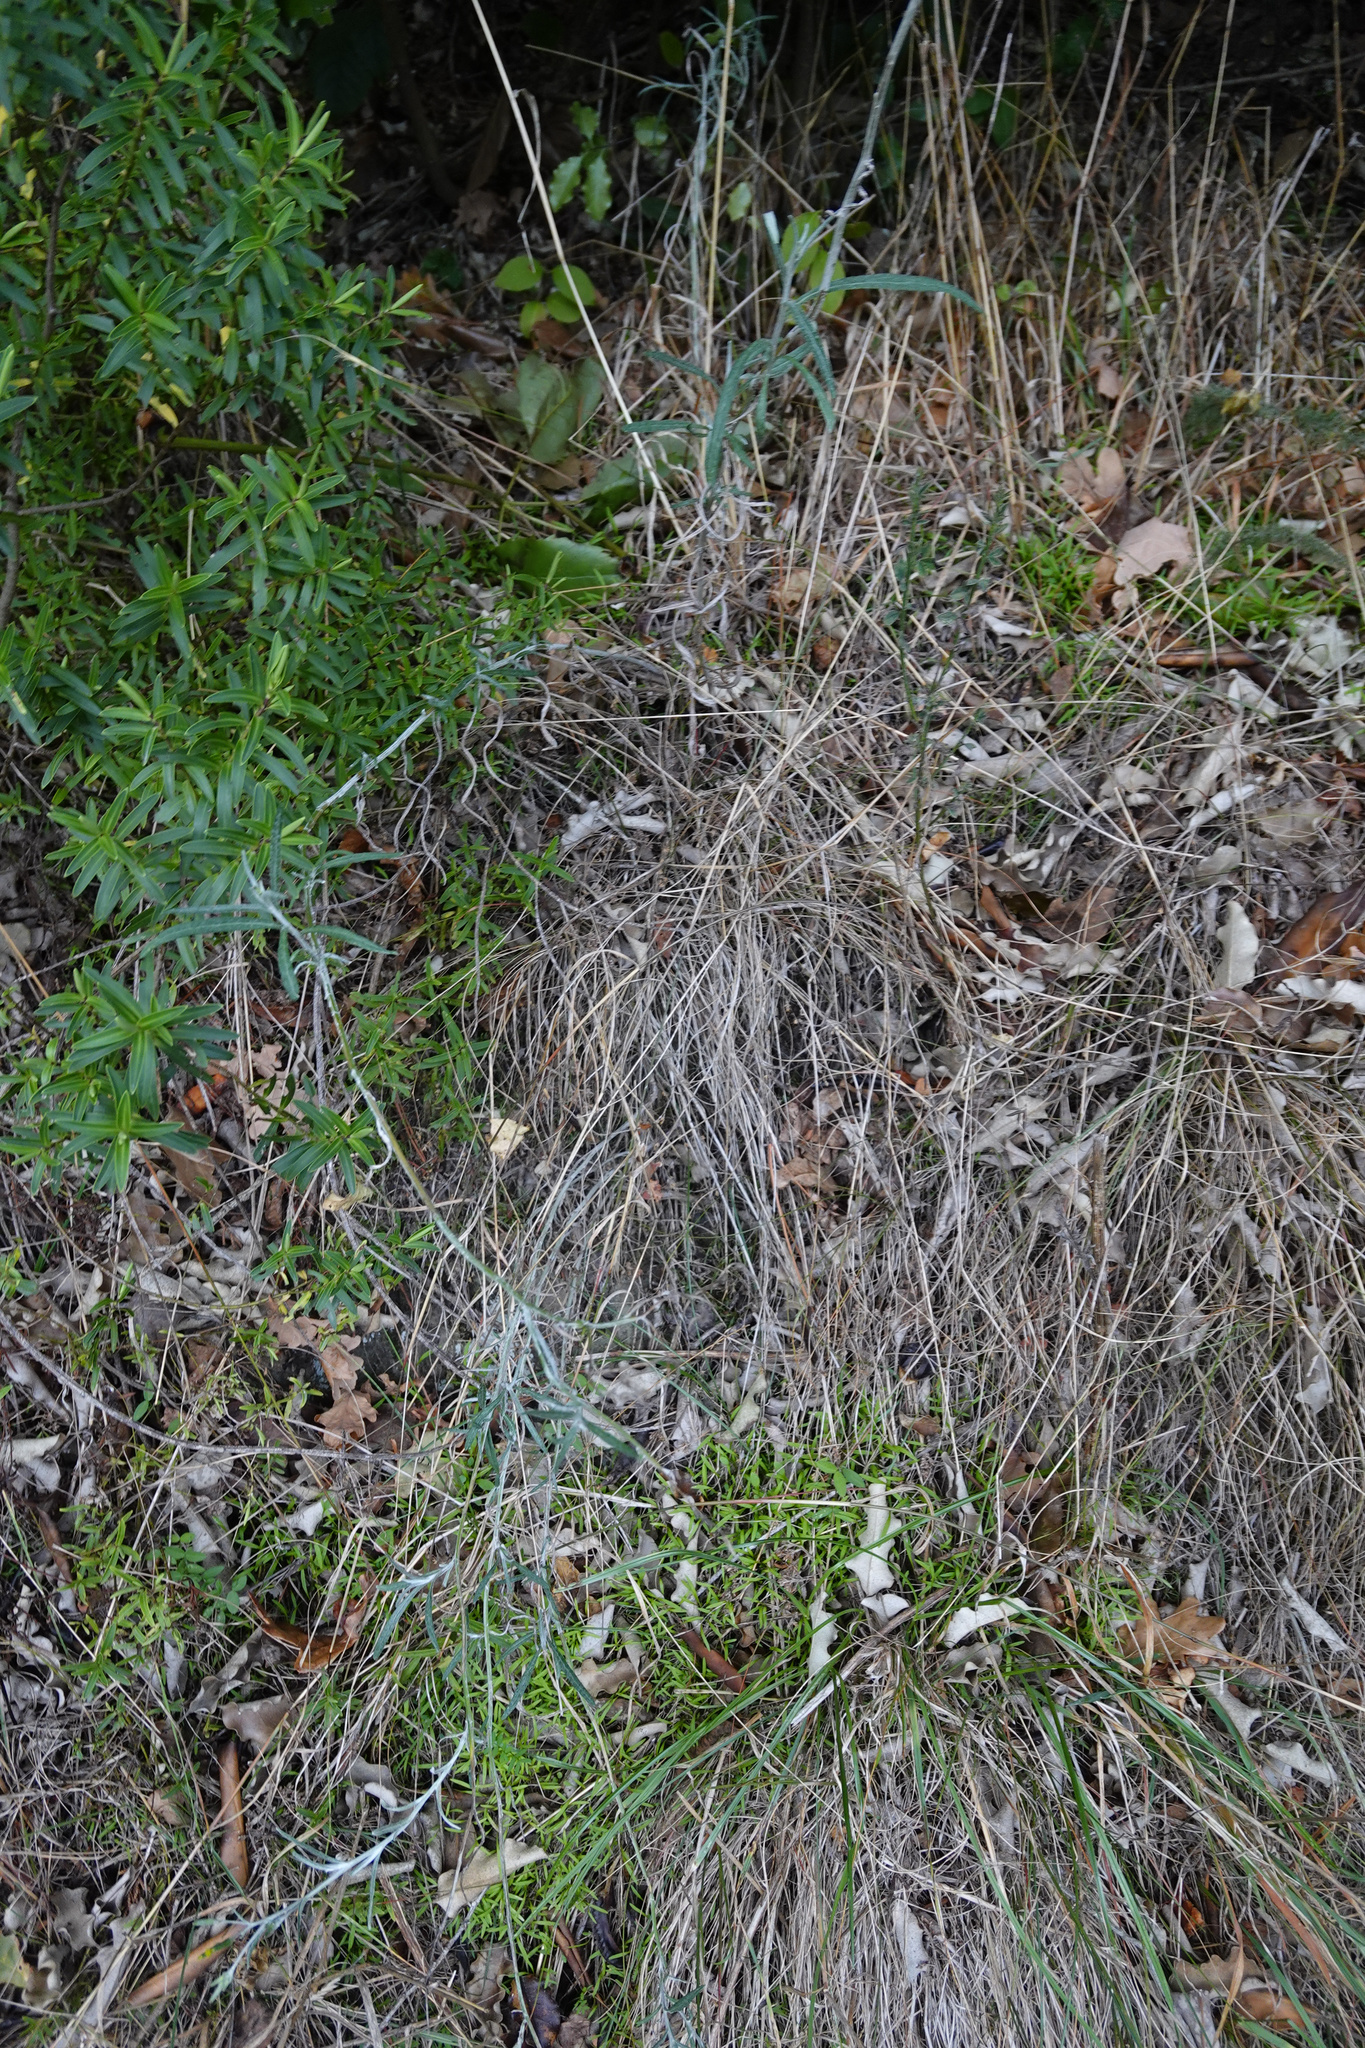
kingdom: Plantae
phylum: Tracheophyta
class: Magnoliopsida
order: Asterales
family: Asteraceae
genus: Senecio
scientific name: Senecio quadridentatus
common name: Cotton fireweed
